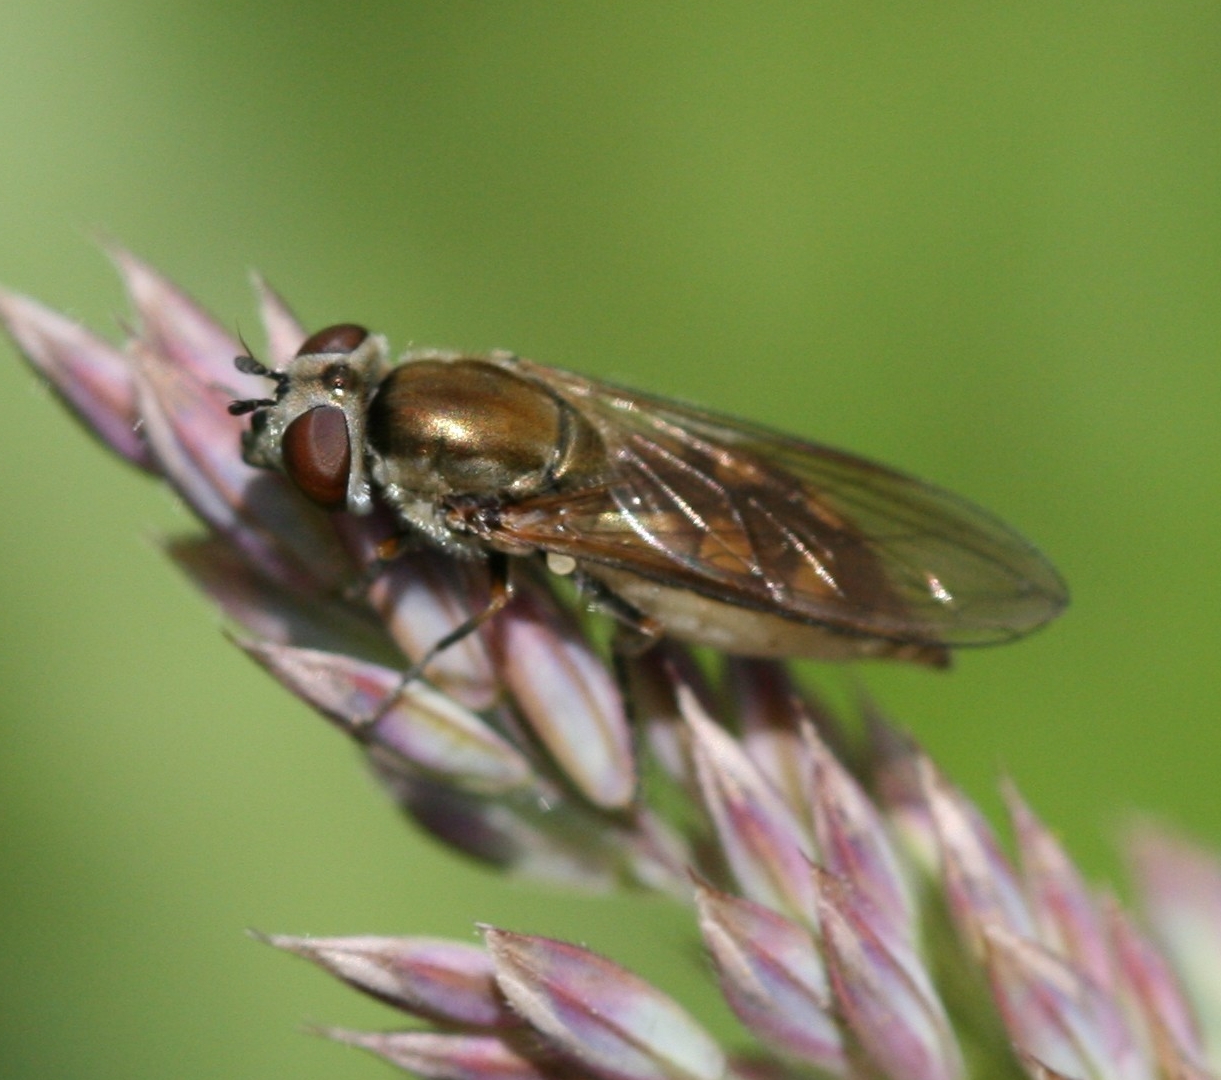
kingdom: Animalia
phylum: Arthropoda
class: Insecta
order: Diptera
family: Syrphidae
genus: Platycheirus
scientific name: Platycheirus manicatus
